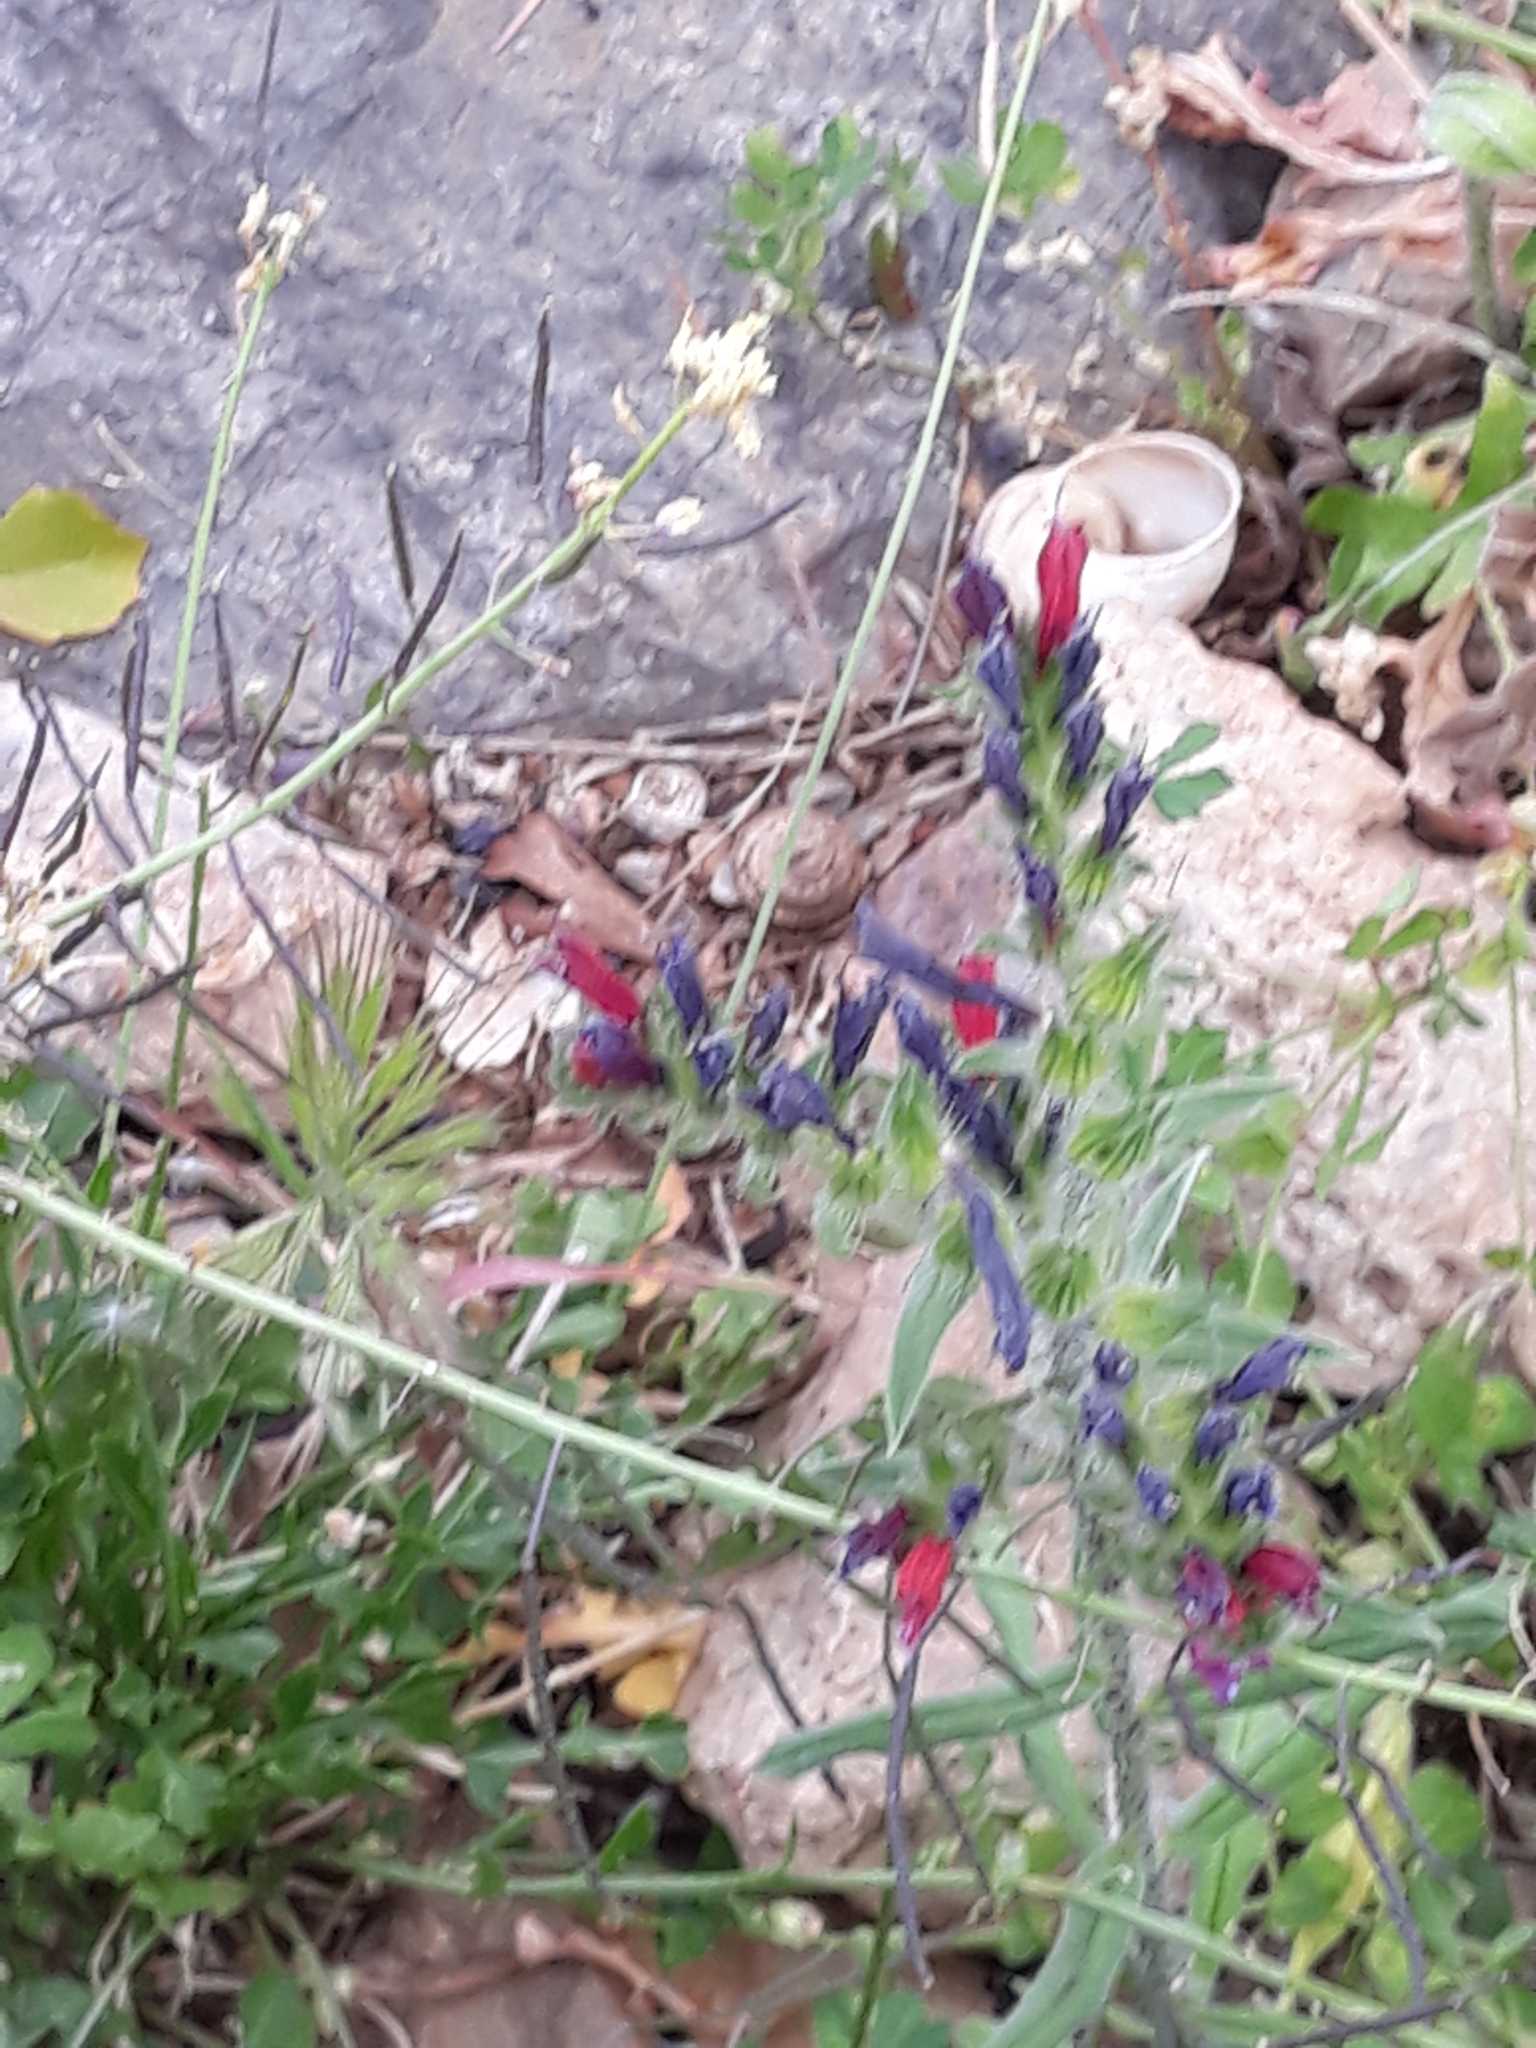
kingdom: Plantae
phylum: Tracheophyta
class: Magnoliopsida
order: Boraginales
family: Boraginaceae
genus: Echium
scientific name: Echium creticum
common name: Cretan viper's bugloss
